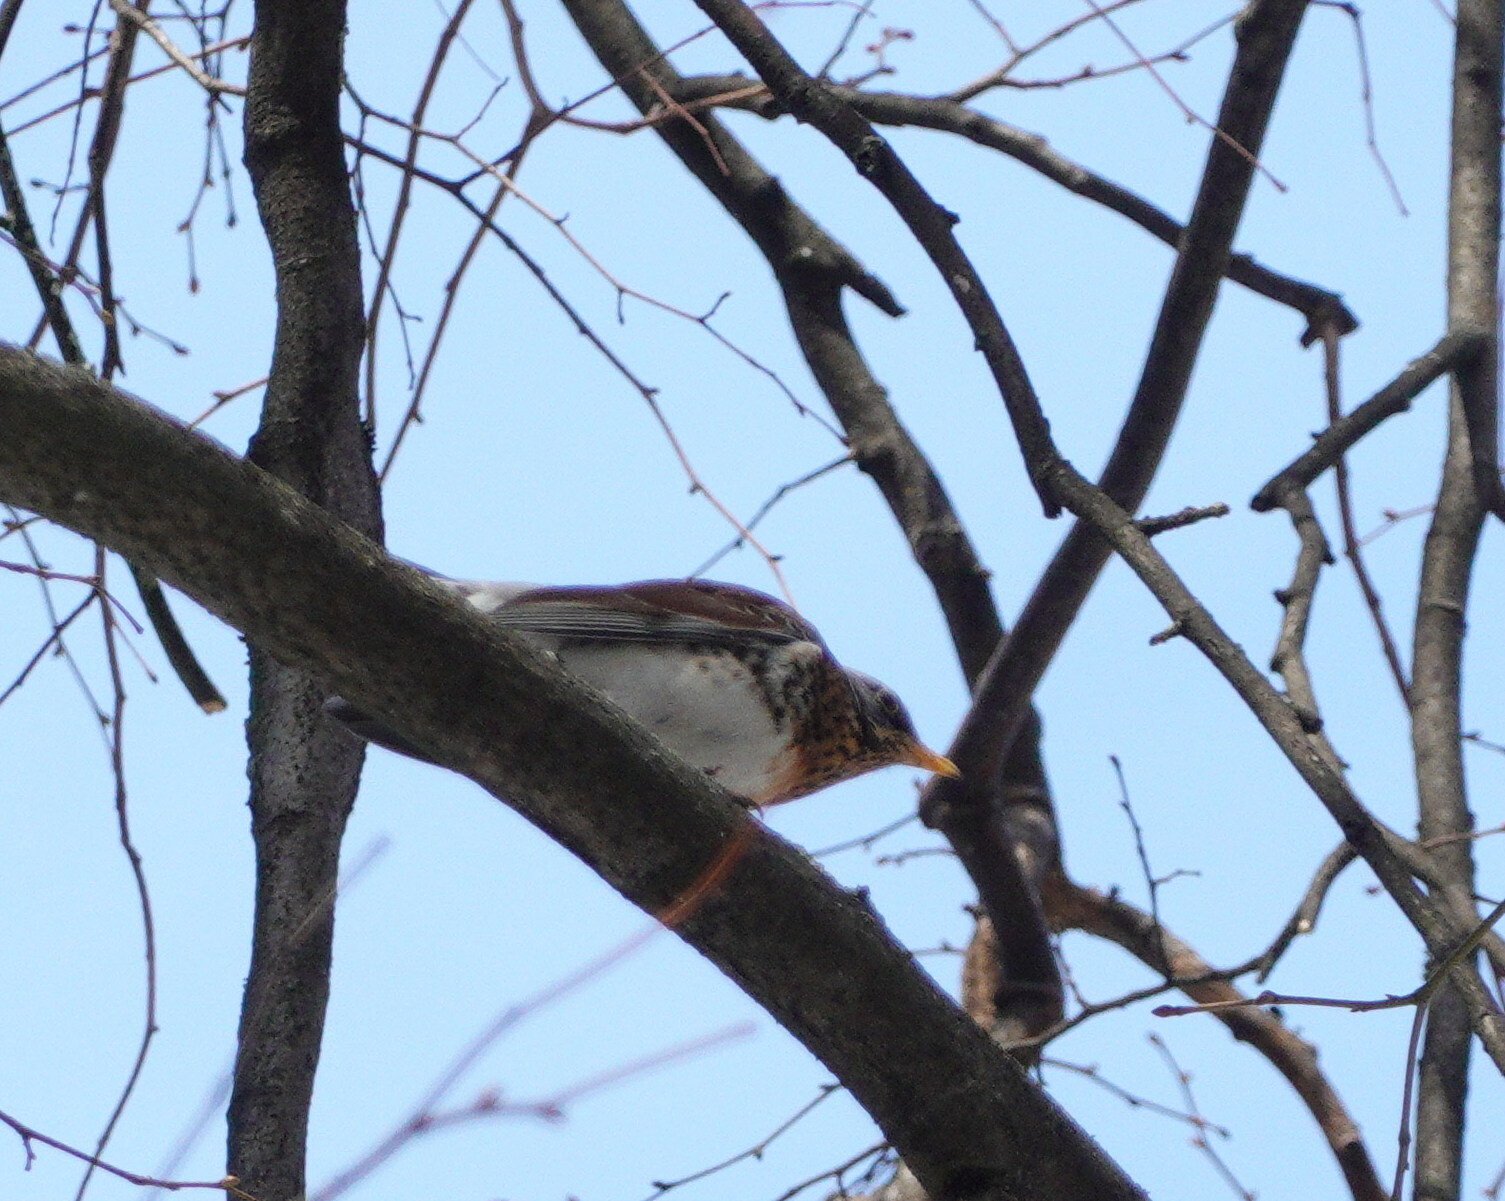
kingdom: Animalia
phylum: Chordata
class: Aves
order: Passeriformes
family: Turdidae
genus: Turdus
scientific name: Turdus pilaris
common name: Fieldfare
